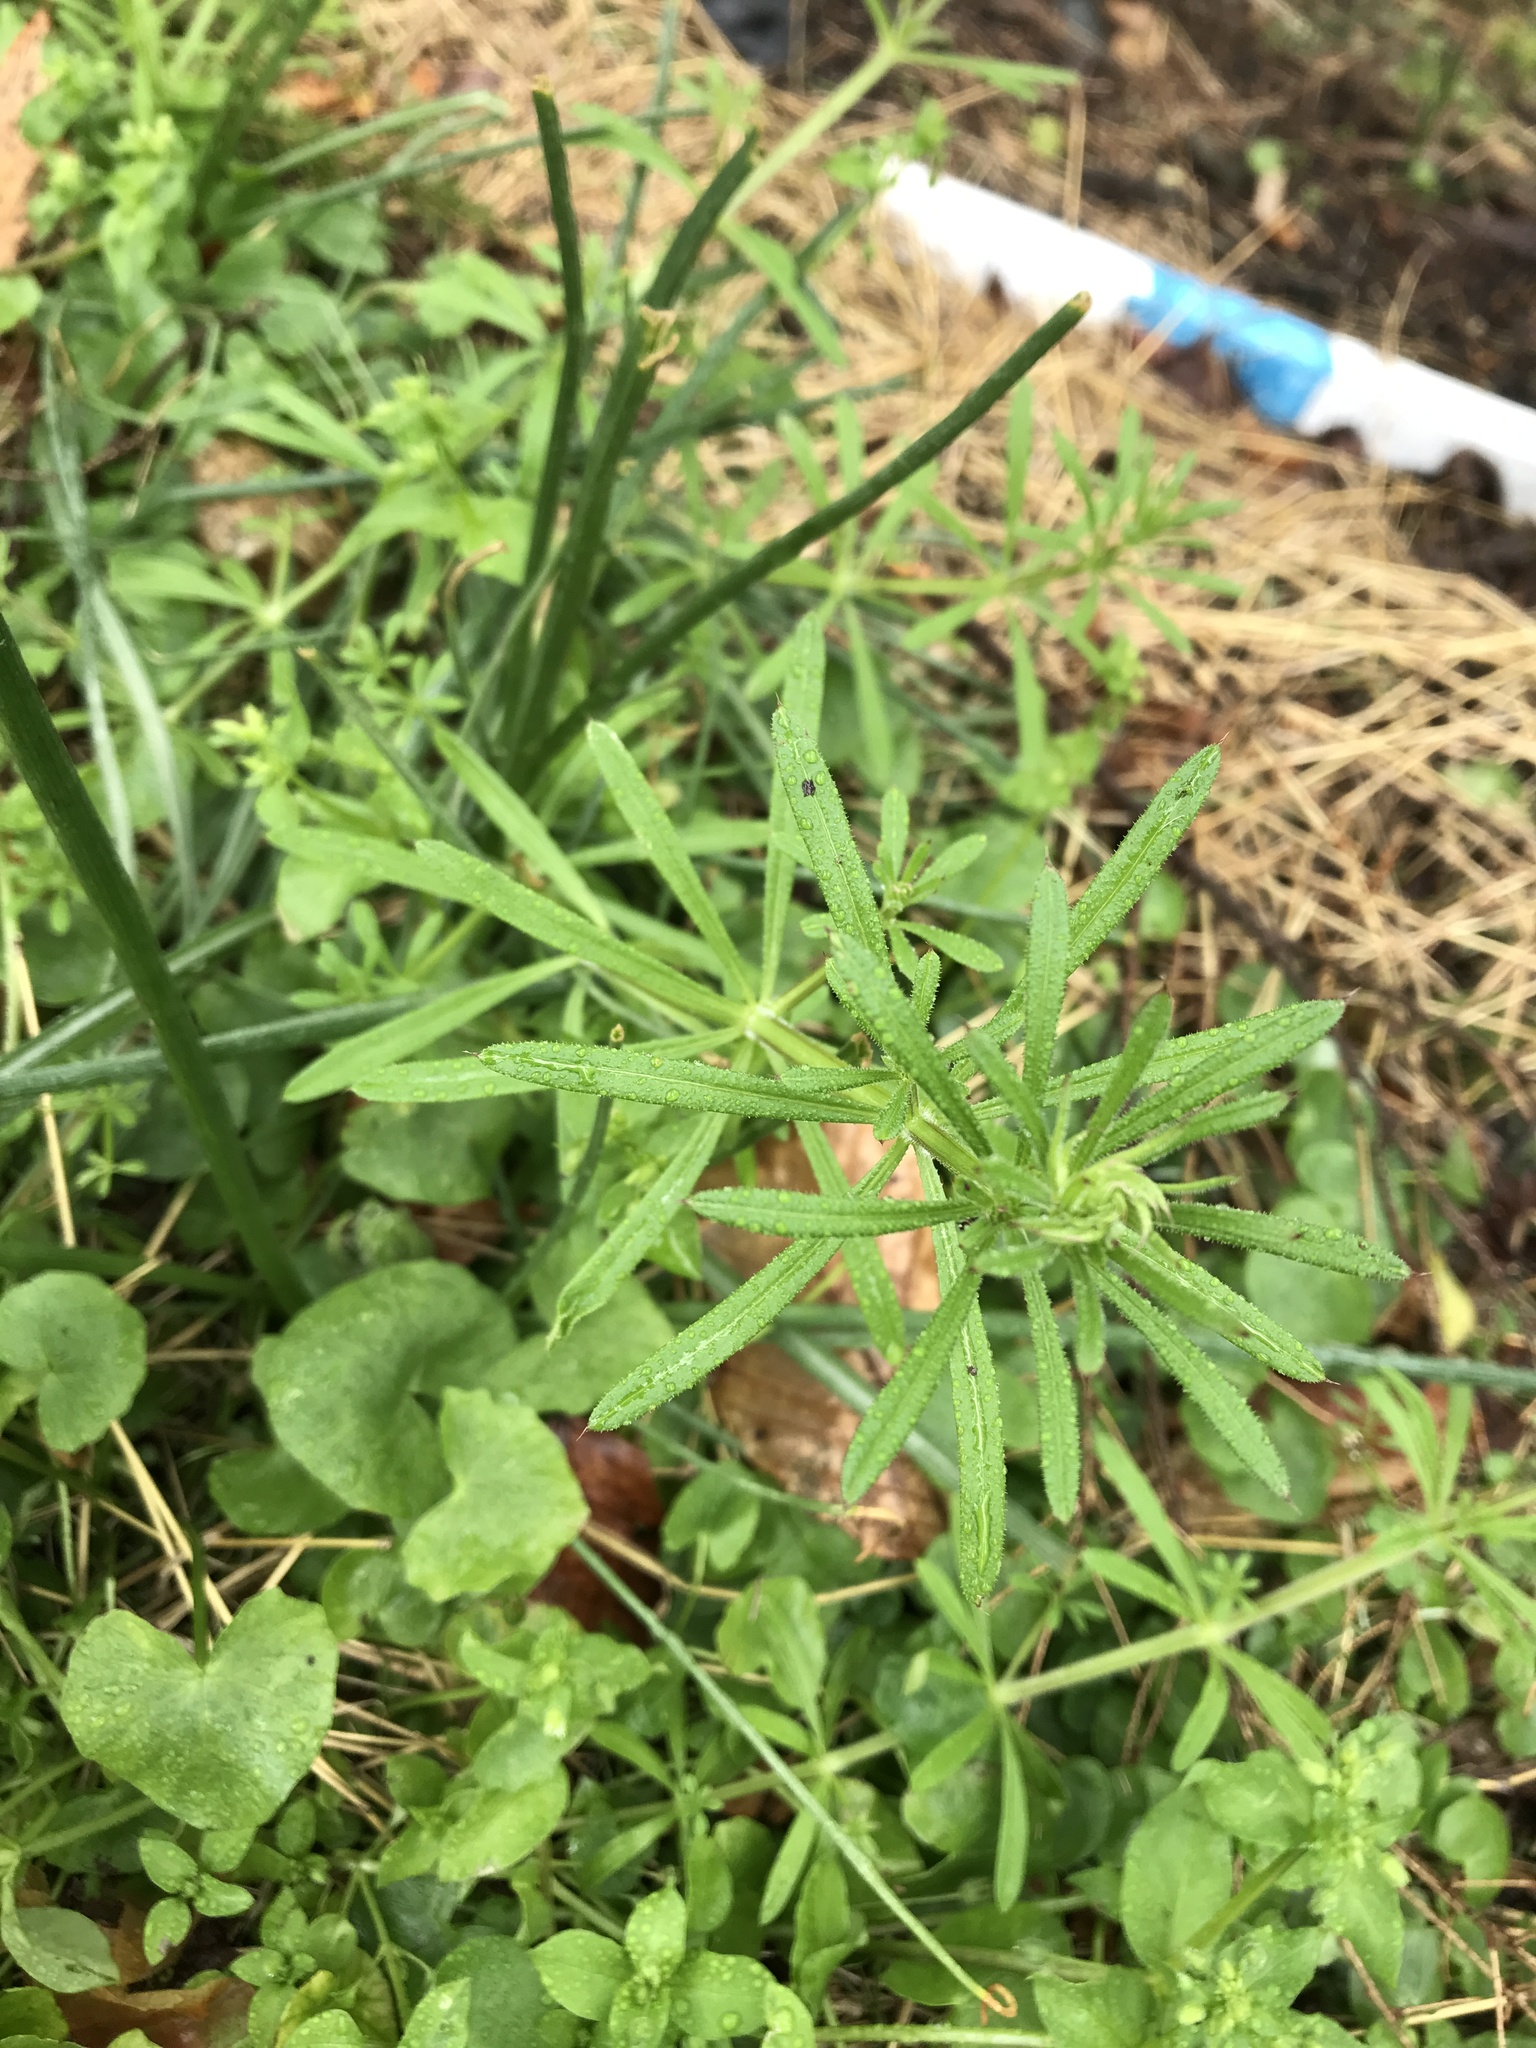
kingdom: Plantae
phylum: Tracheophyta
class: Magnoliopsida
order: Gentianales
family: Rubiaceae
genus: Galium
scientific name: Galium aparine
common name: Cleavers
